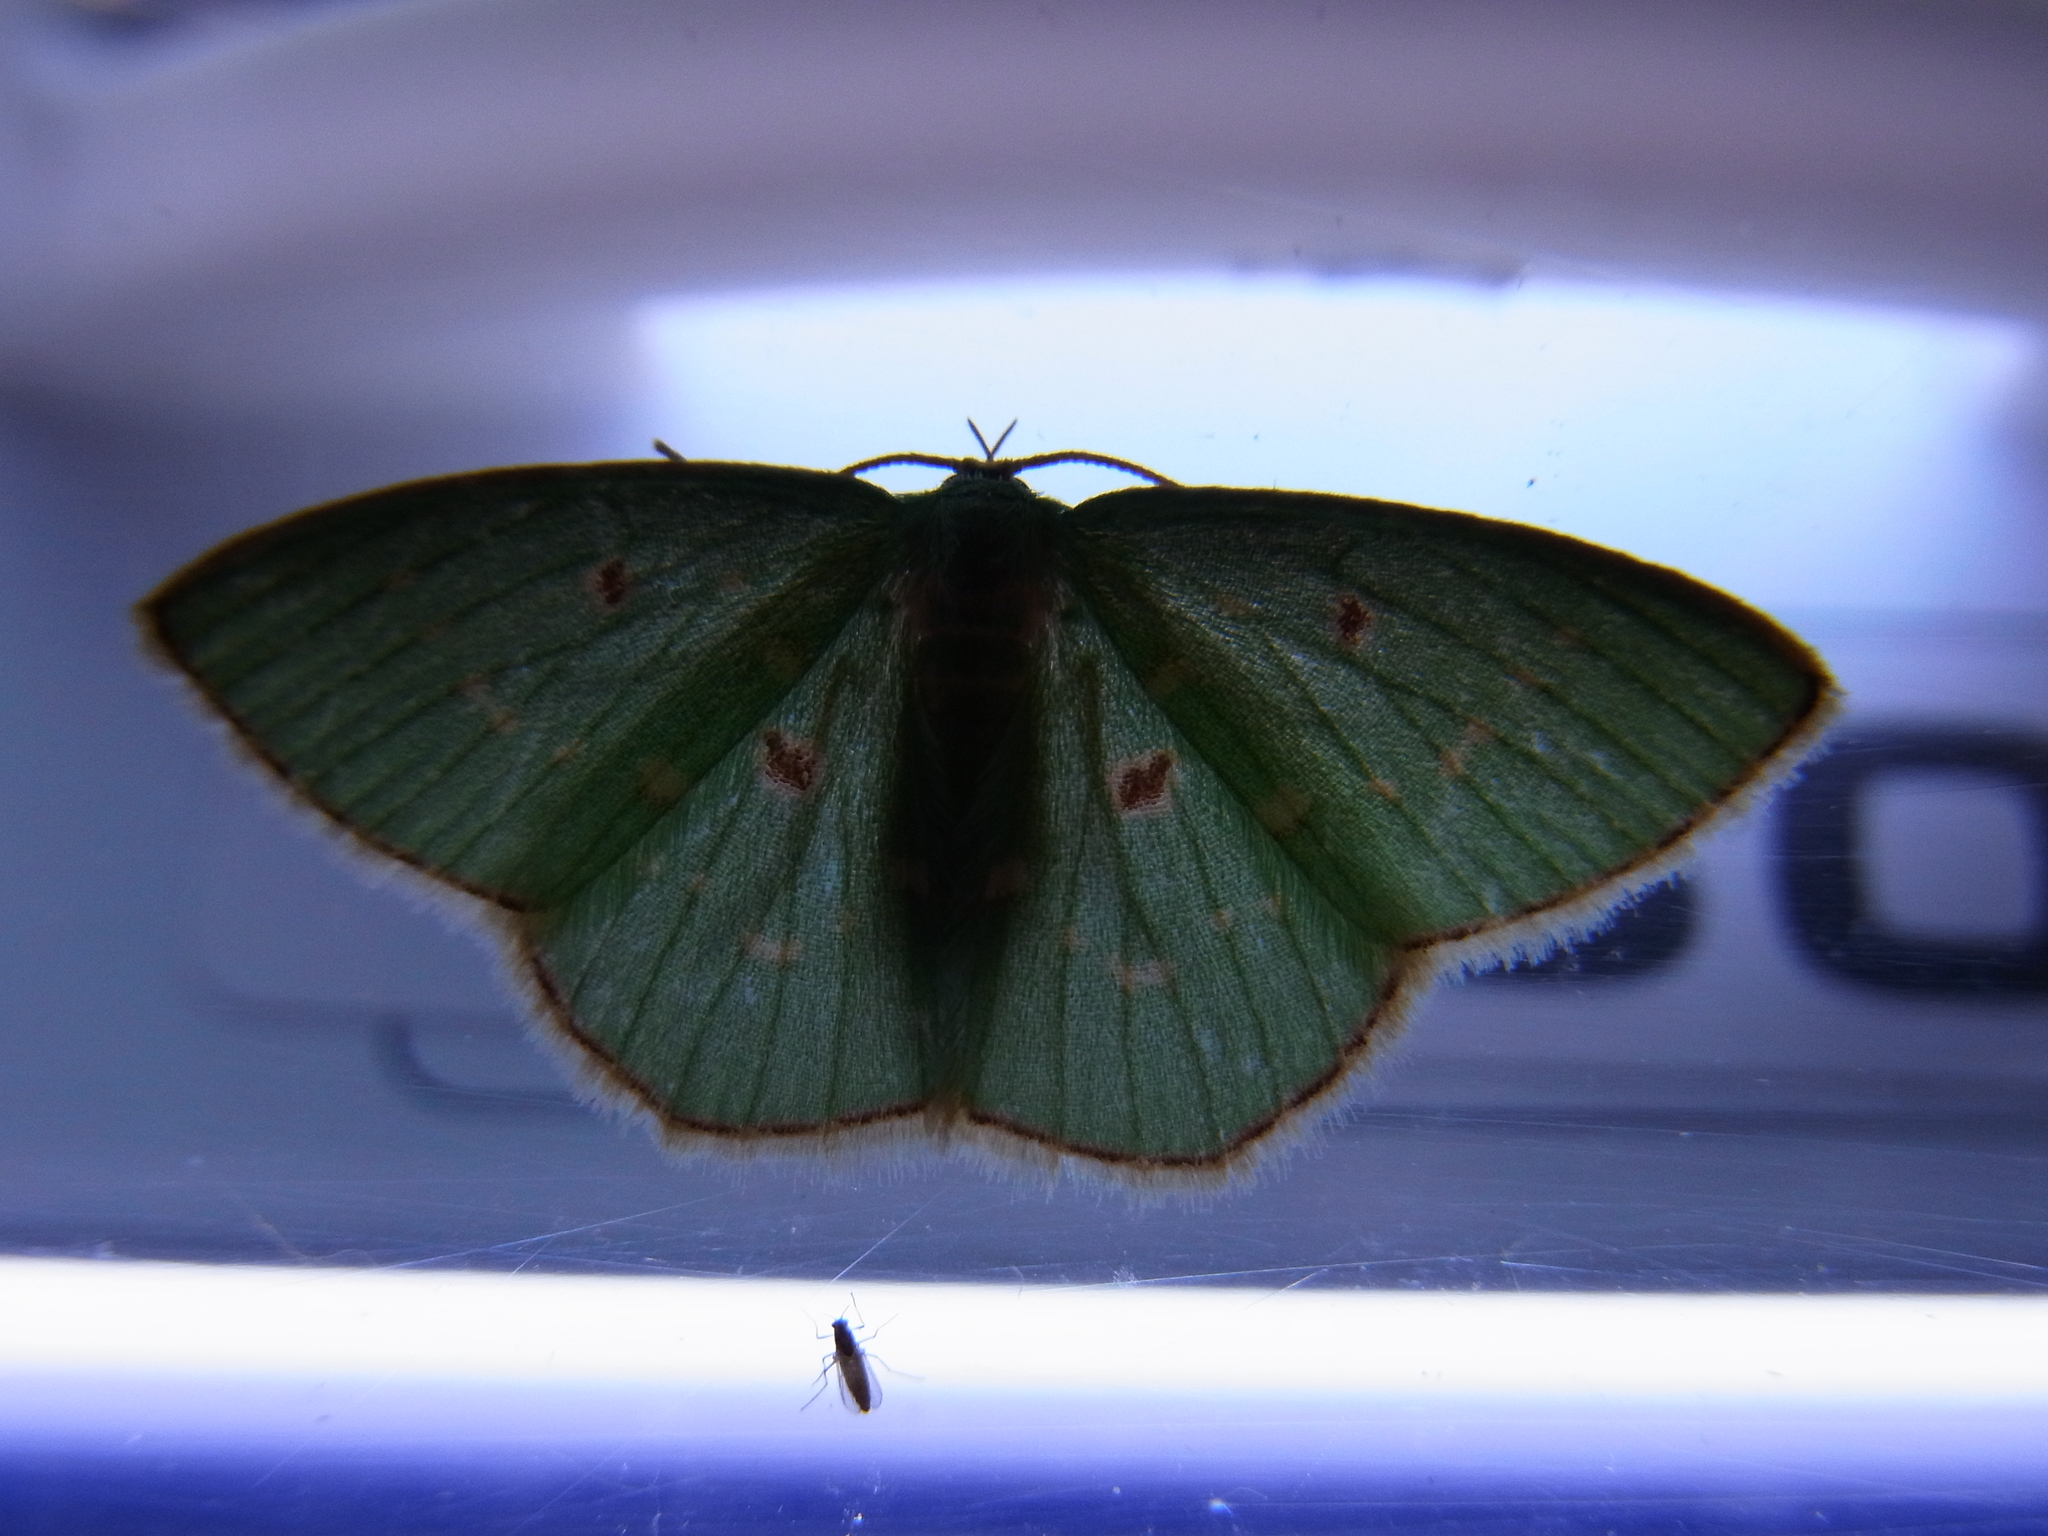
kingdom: Animalia
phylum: Arthropoda
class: Insecta
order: Lepidoptera
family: Geometridae
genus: Comostola
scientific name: Comostola subtiliaria
